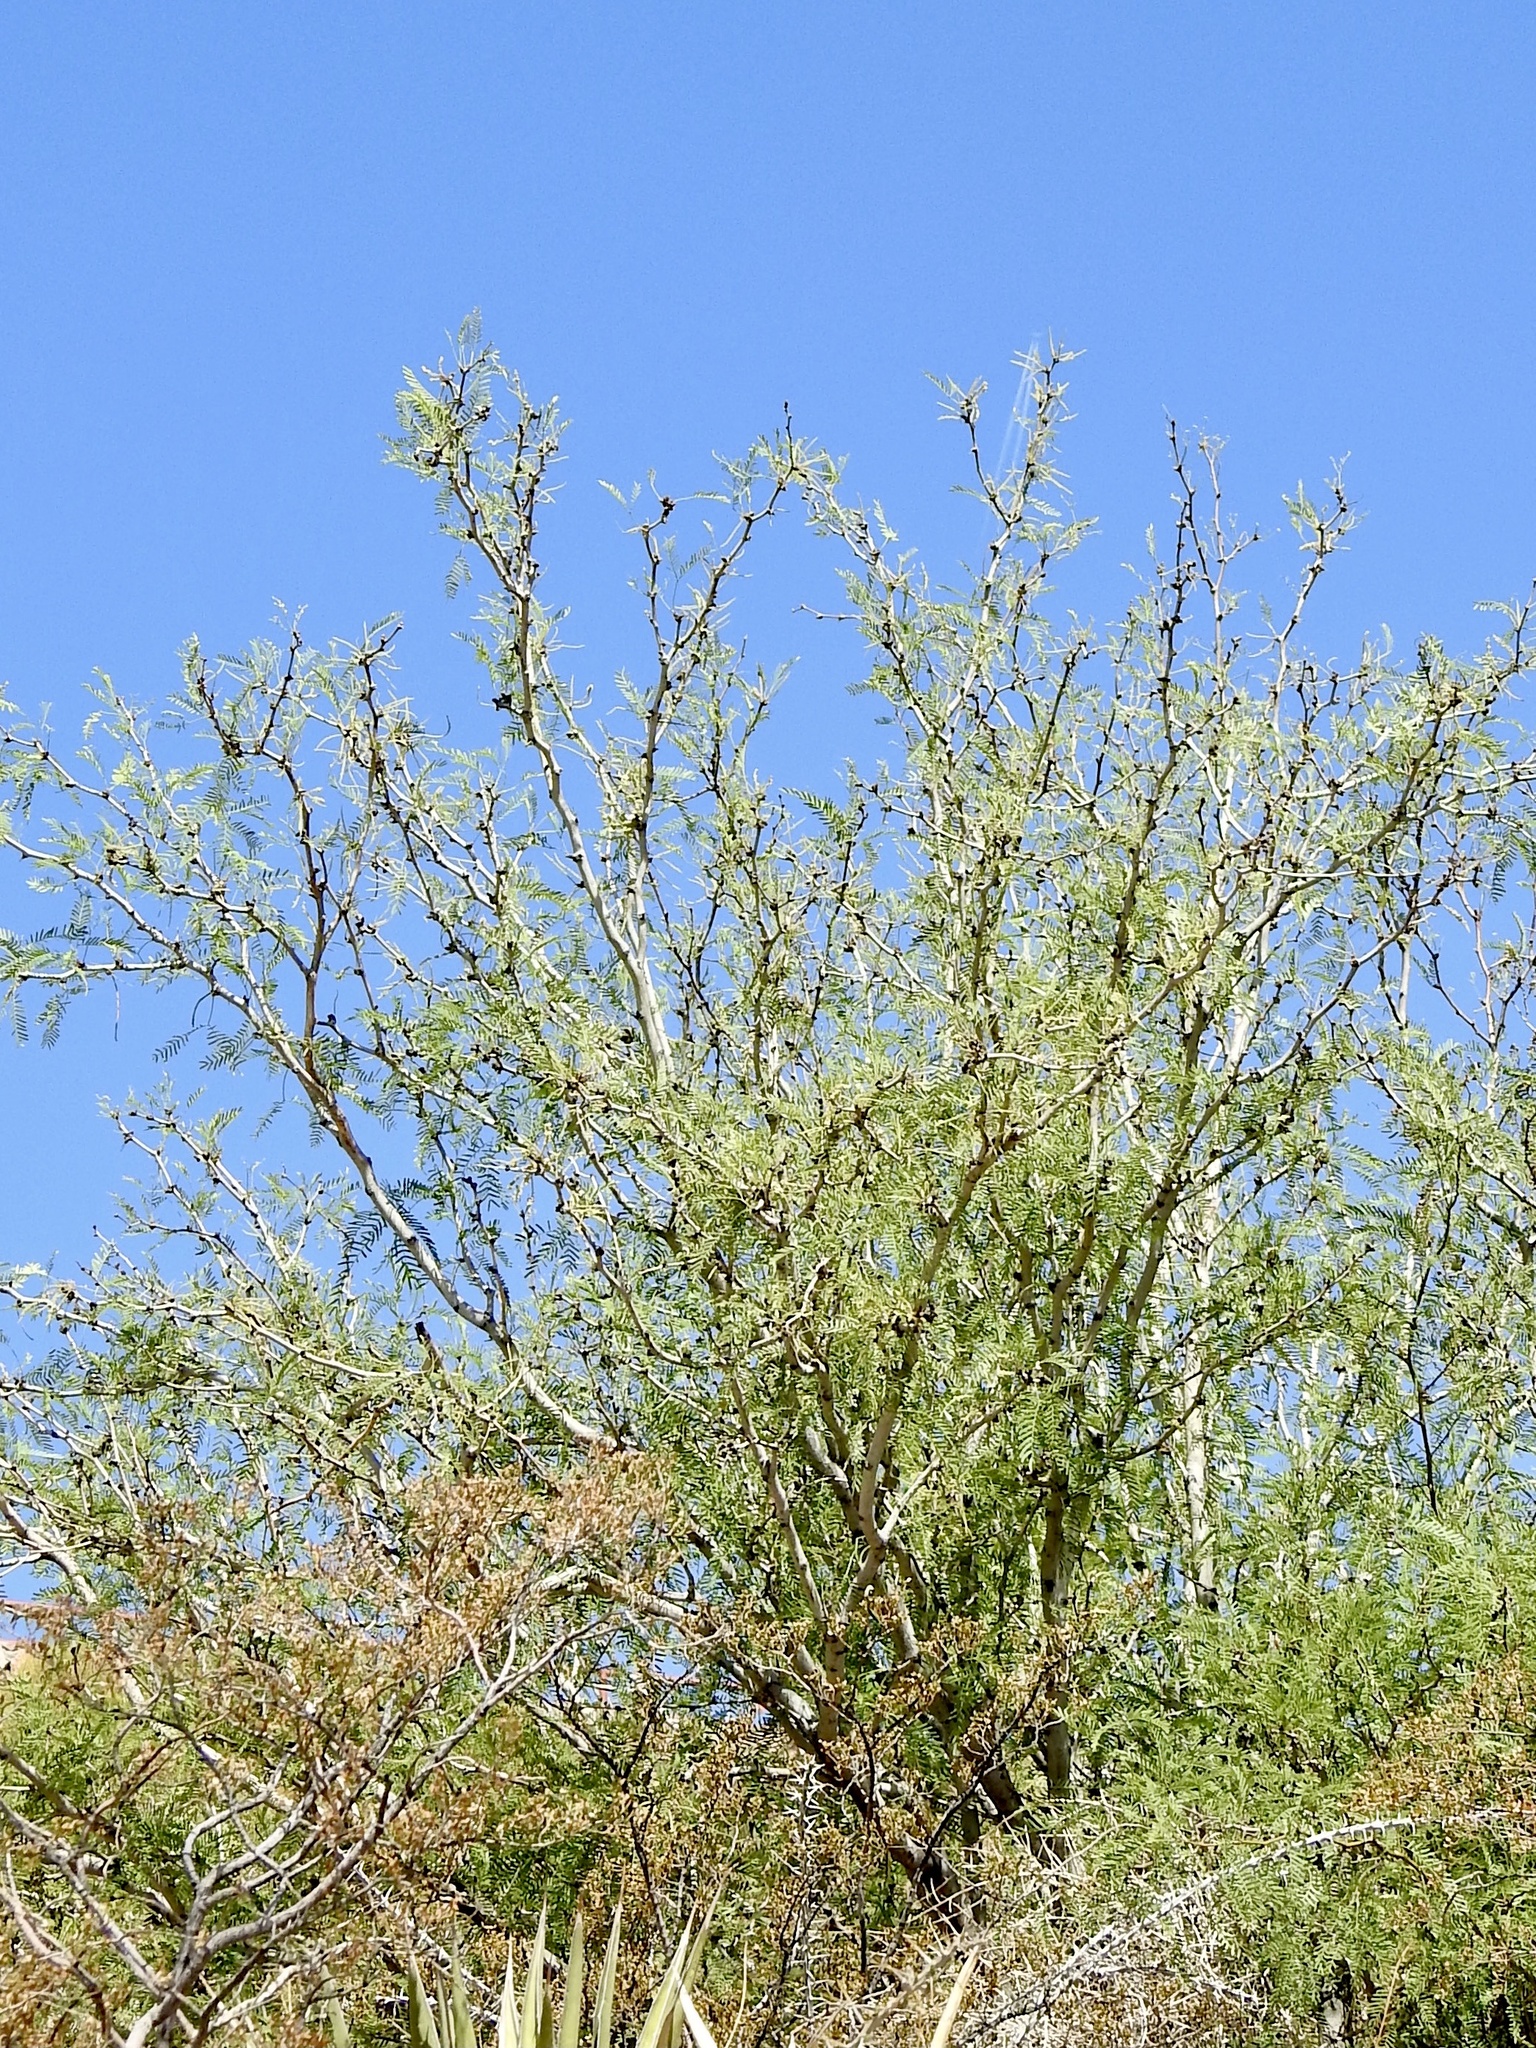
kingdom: Plantae
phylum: Tracheophyta
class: Magnoliopsida
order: Fabales
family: Fabaceae
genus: Prosopis
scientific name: Prosopis glandulosa
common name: Honey mesquite
